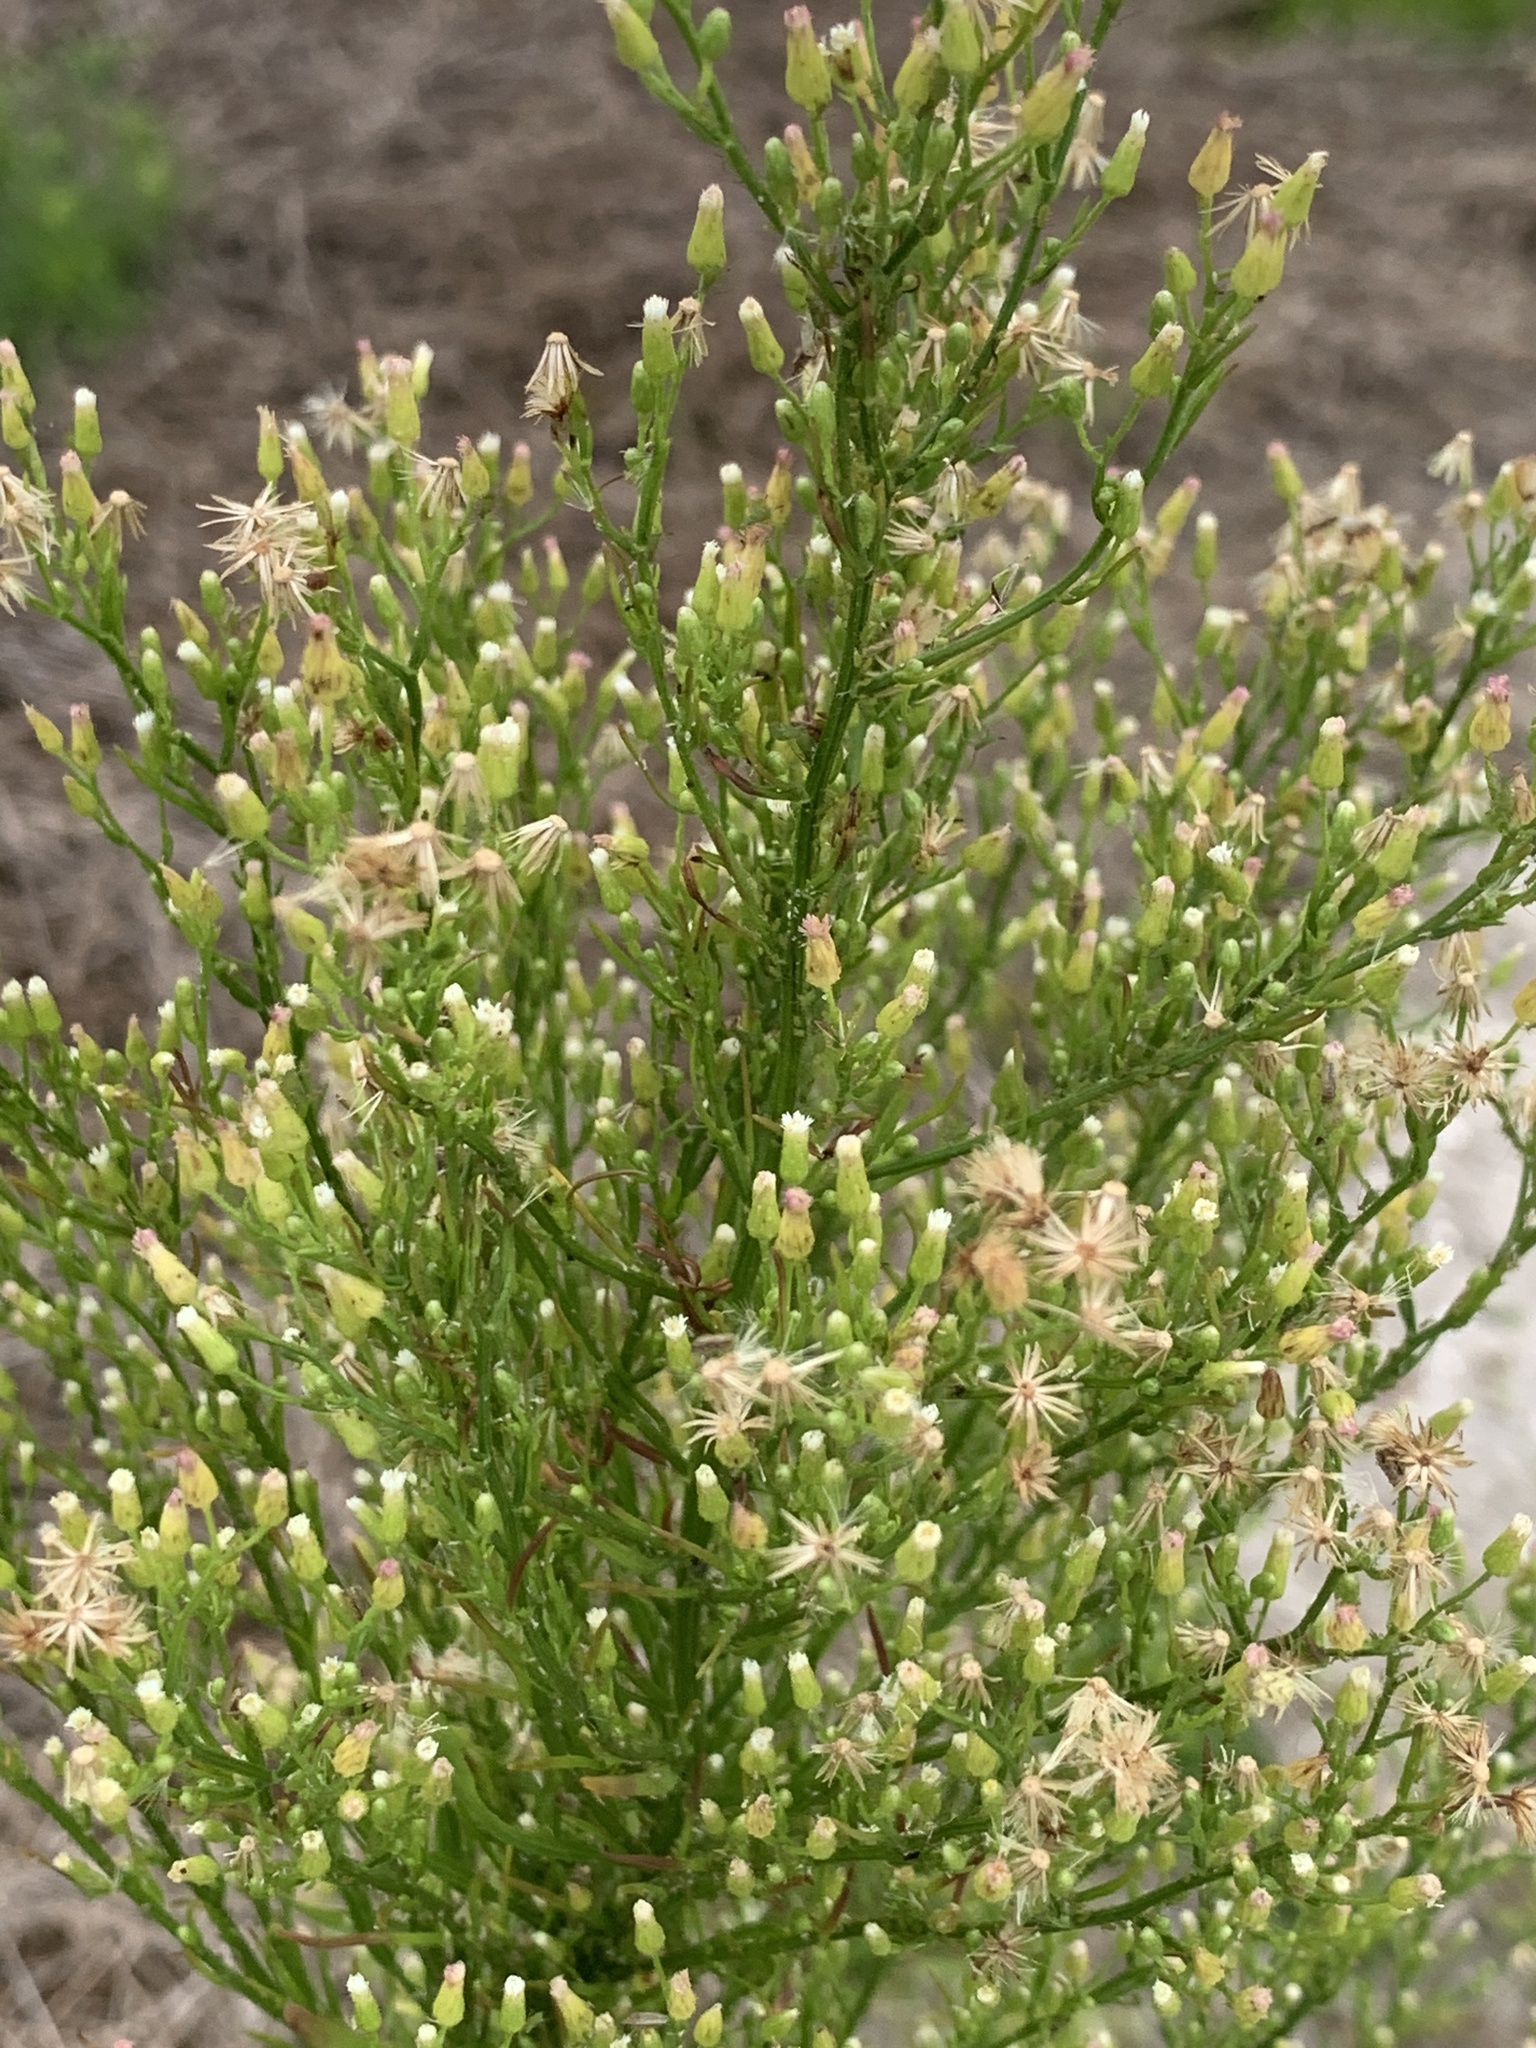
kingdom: Plantae
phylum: Tracheophyta
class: Magnoliopsida
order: Asterales
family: Asteraceae
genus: Erigeron
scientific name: Erigeron canadensis
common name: Canadian fleabane
